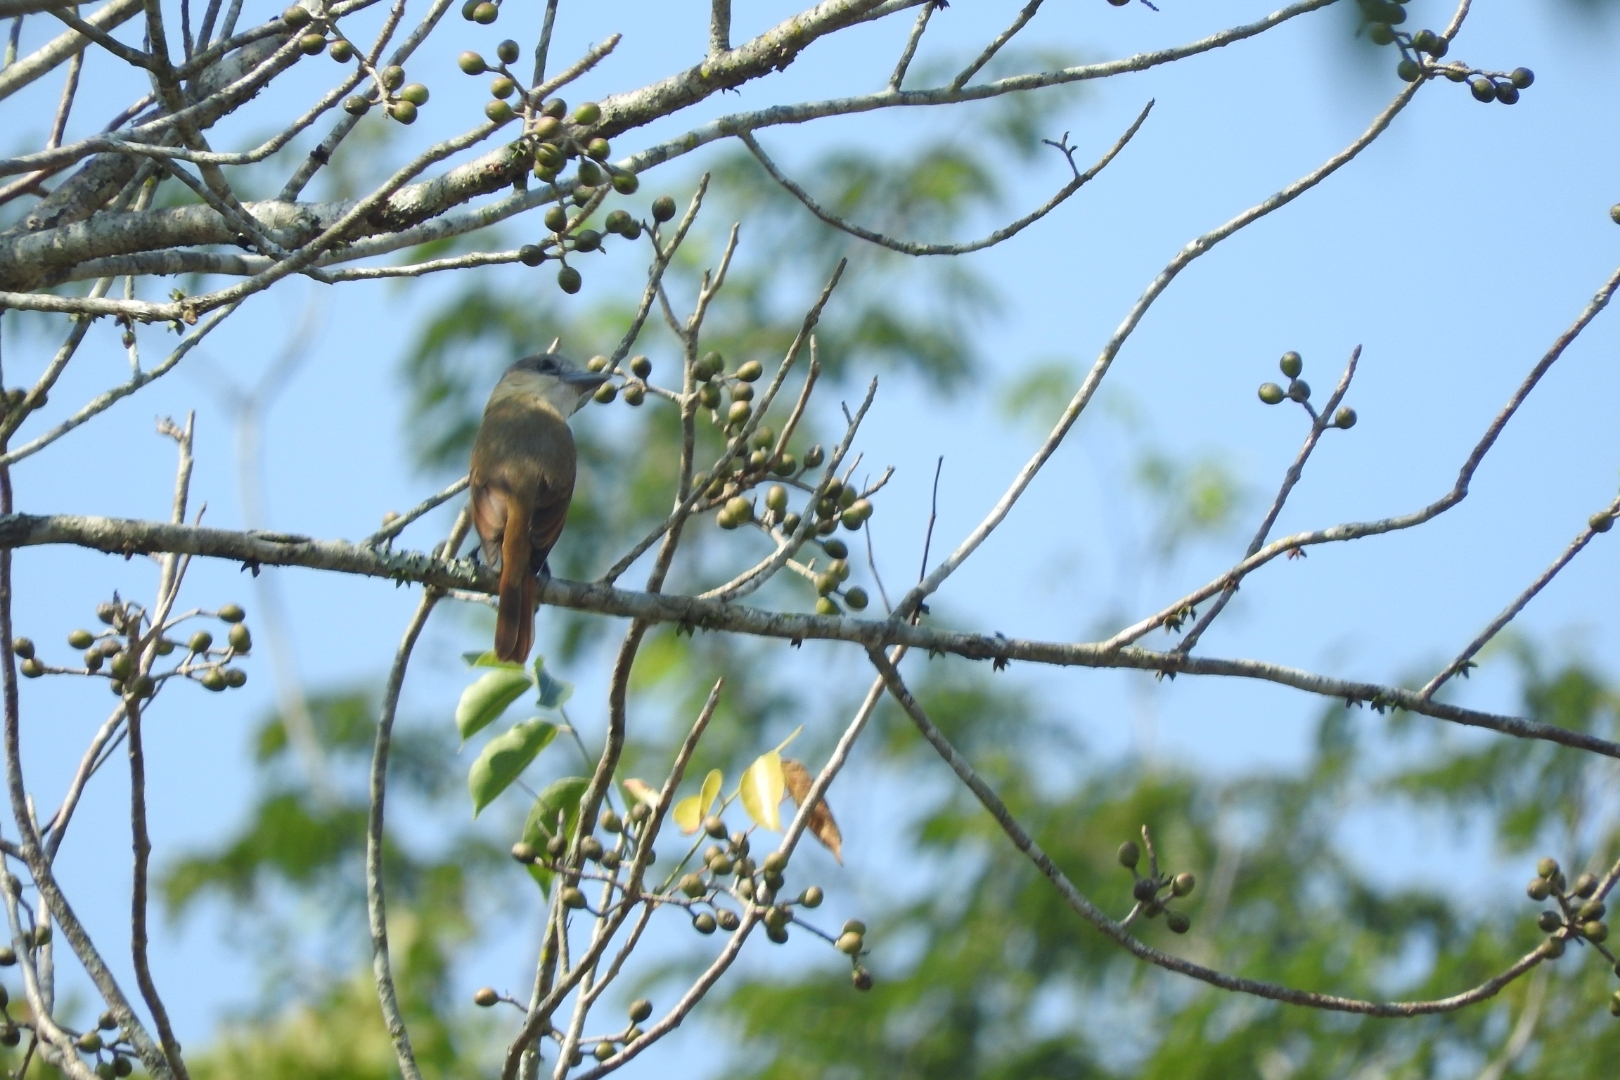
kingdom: Animalia
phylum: Chordata
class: Aves
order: Passeriformes
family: Cotingidae
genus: Pachyramphus
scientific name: Pachyramphus aglaiae
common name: Rose-throated becard
